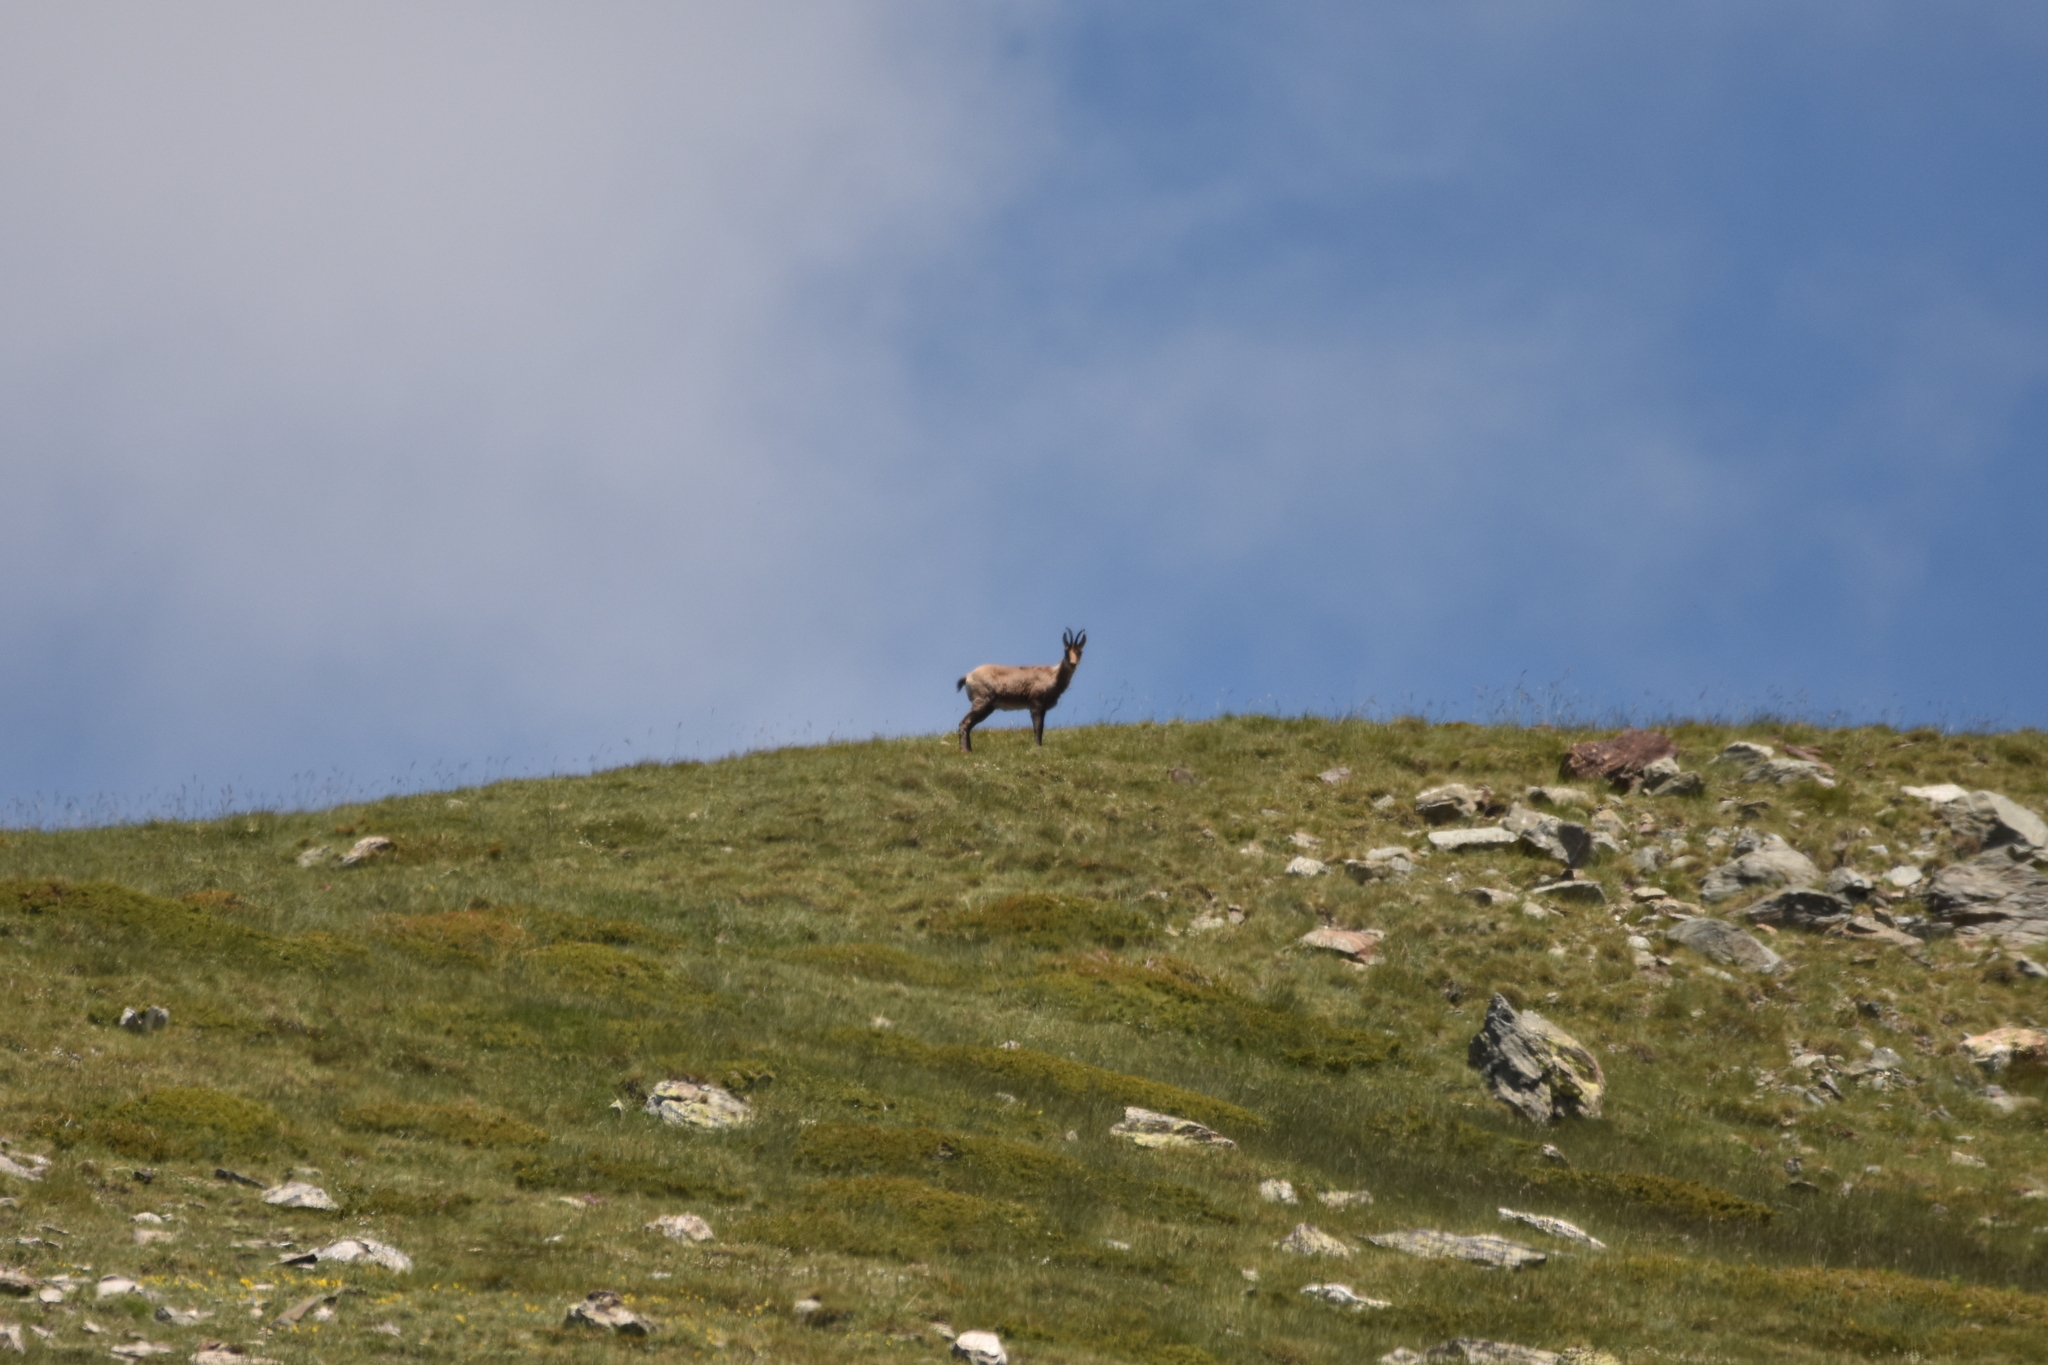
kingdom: Animalia
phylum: Chordata
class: Mammalia
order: Artiodactyla
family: Bovidae
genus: Rupicapra
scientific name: Rupicapra pyrenaica
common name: Pyrenean chamois
